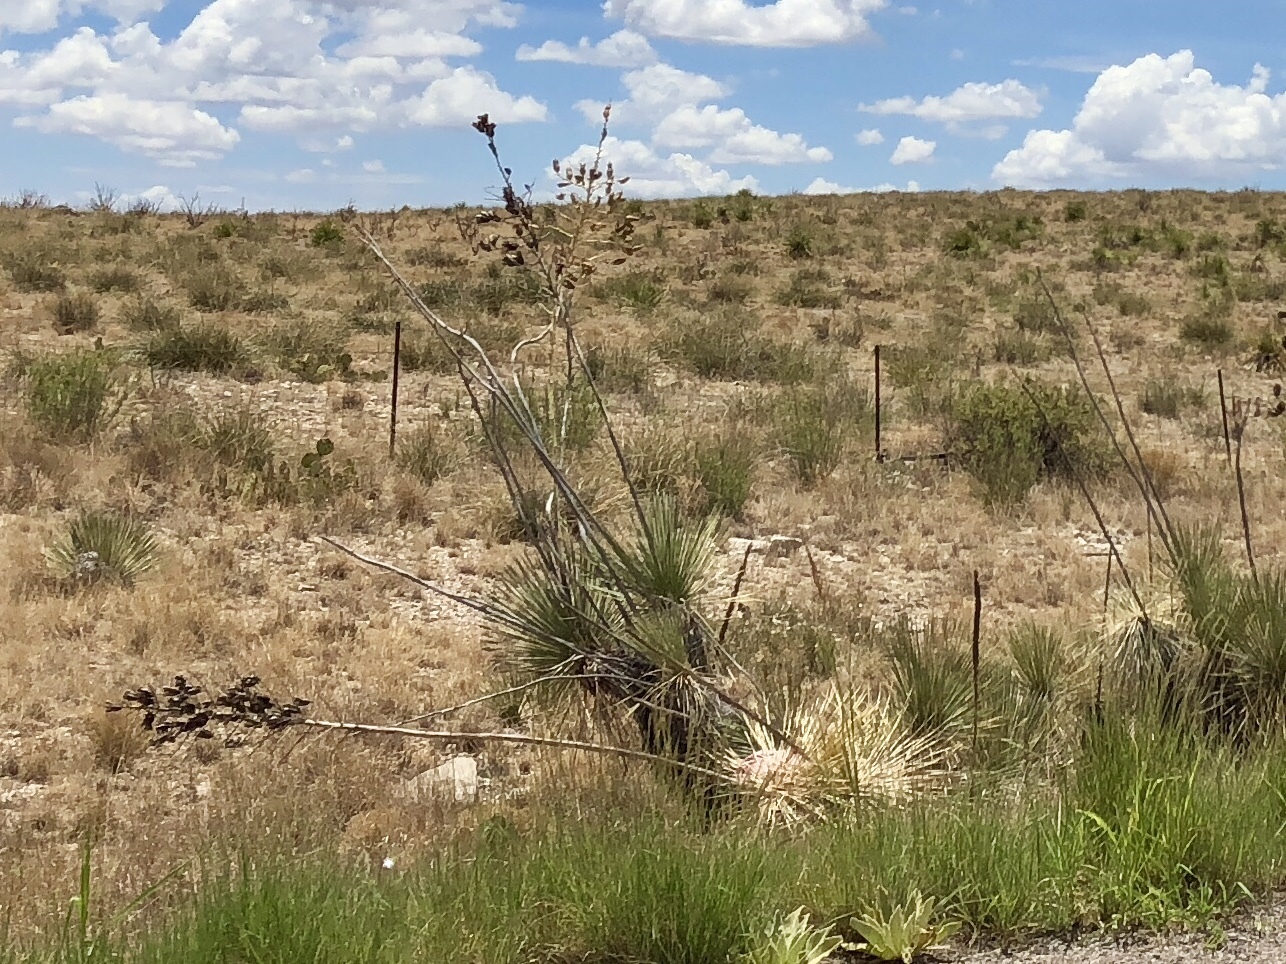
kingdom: Plantae
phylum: Tracheophyta
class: Liliopsida
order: Asparagales
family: Asparagaceae
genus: Yucca
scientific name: Yucca elata
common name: Palmella
